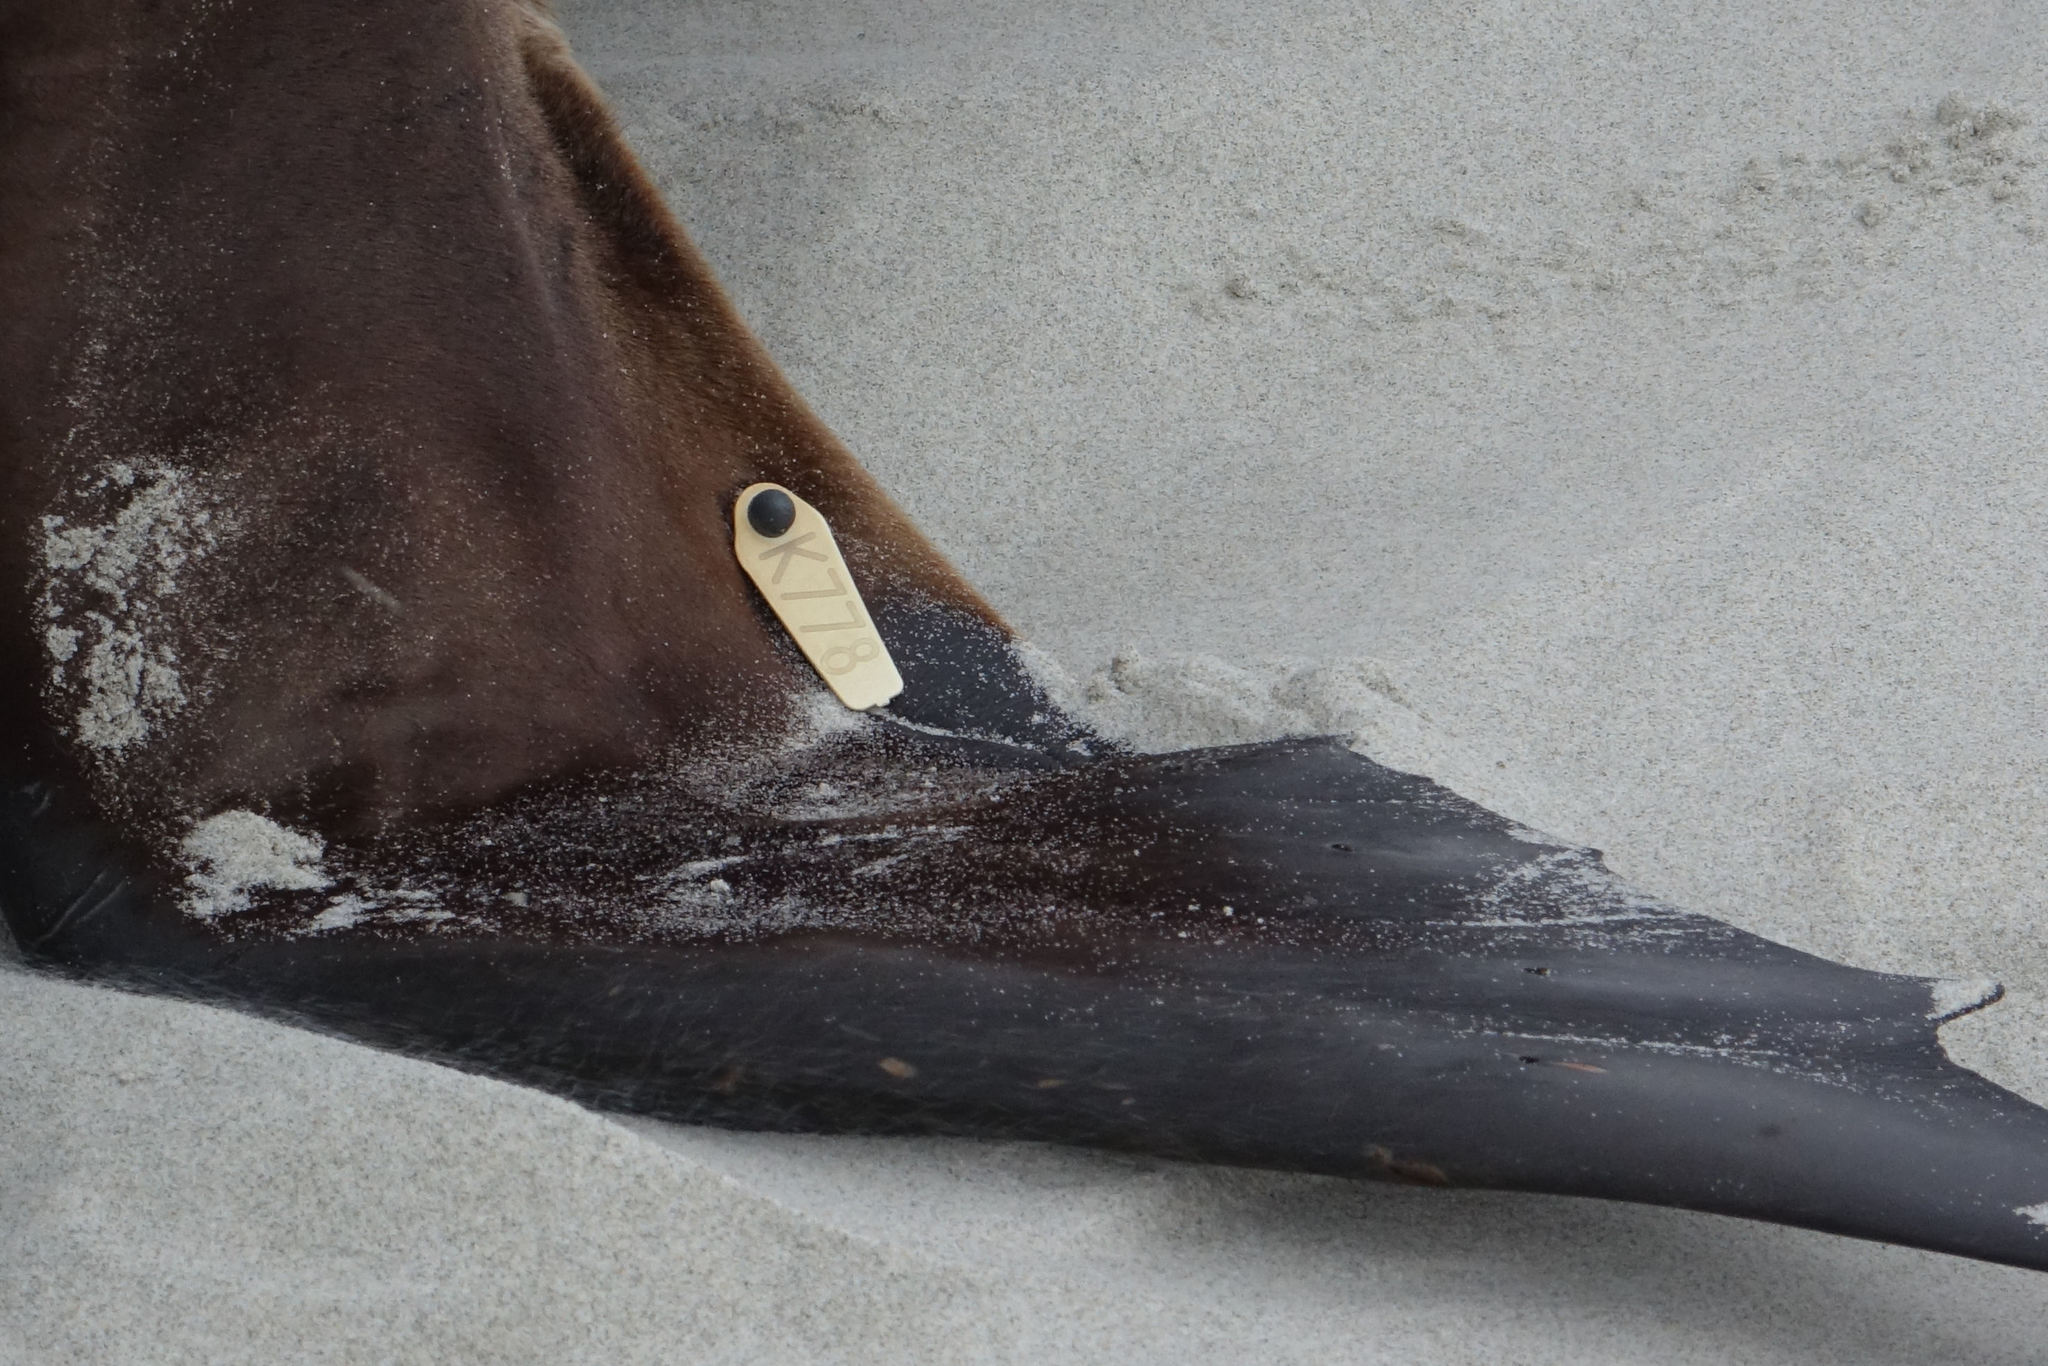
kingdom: Animalia
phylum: Chordata
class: Mammalia
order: Carnivora
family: Otariidae
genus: Phocarctos
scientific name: Phocarctos hookeri
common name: New zealand sea lion
